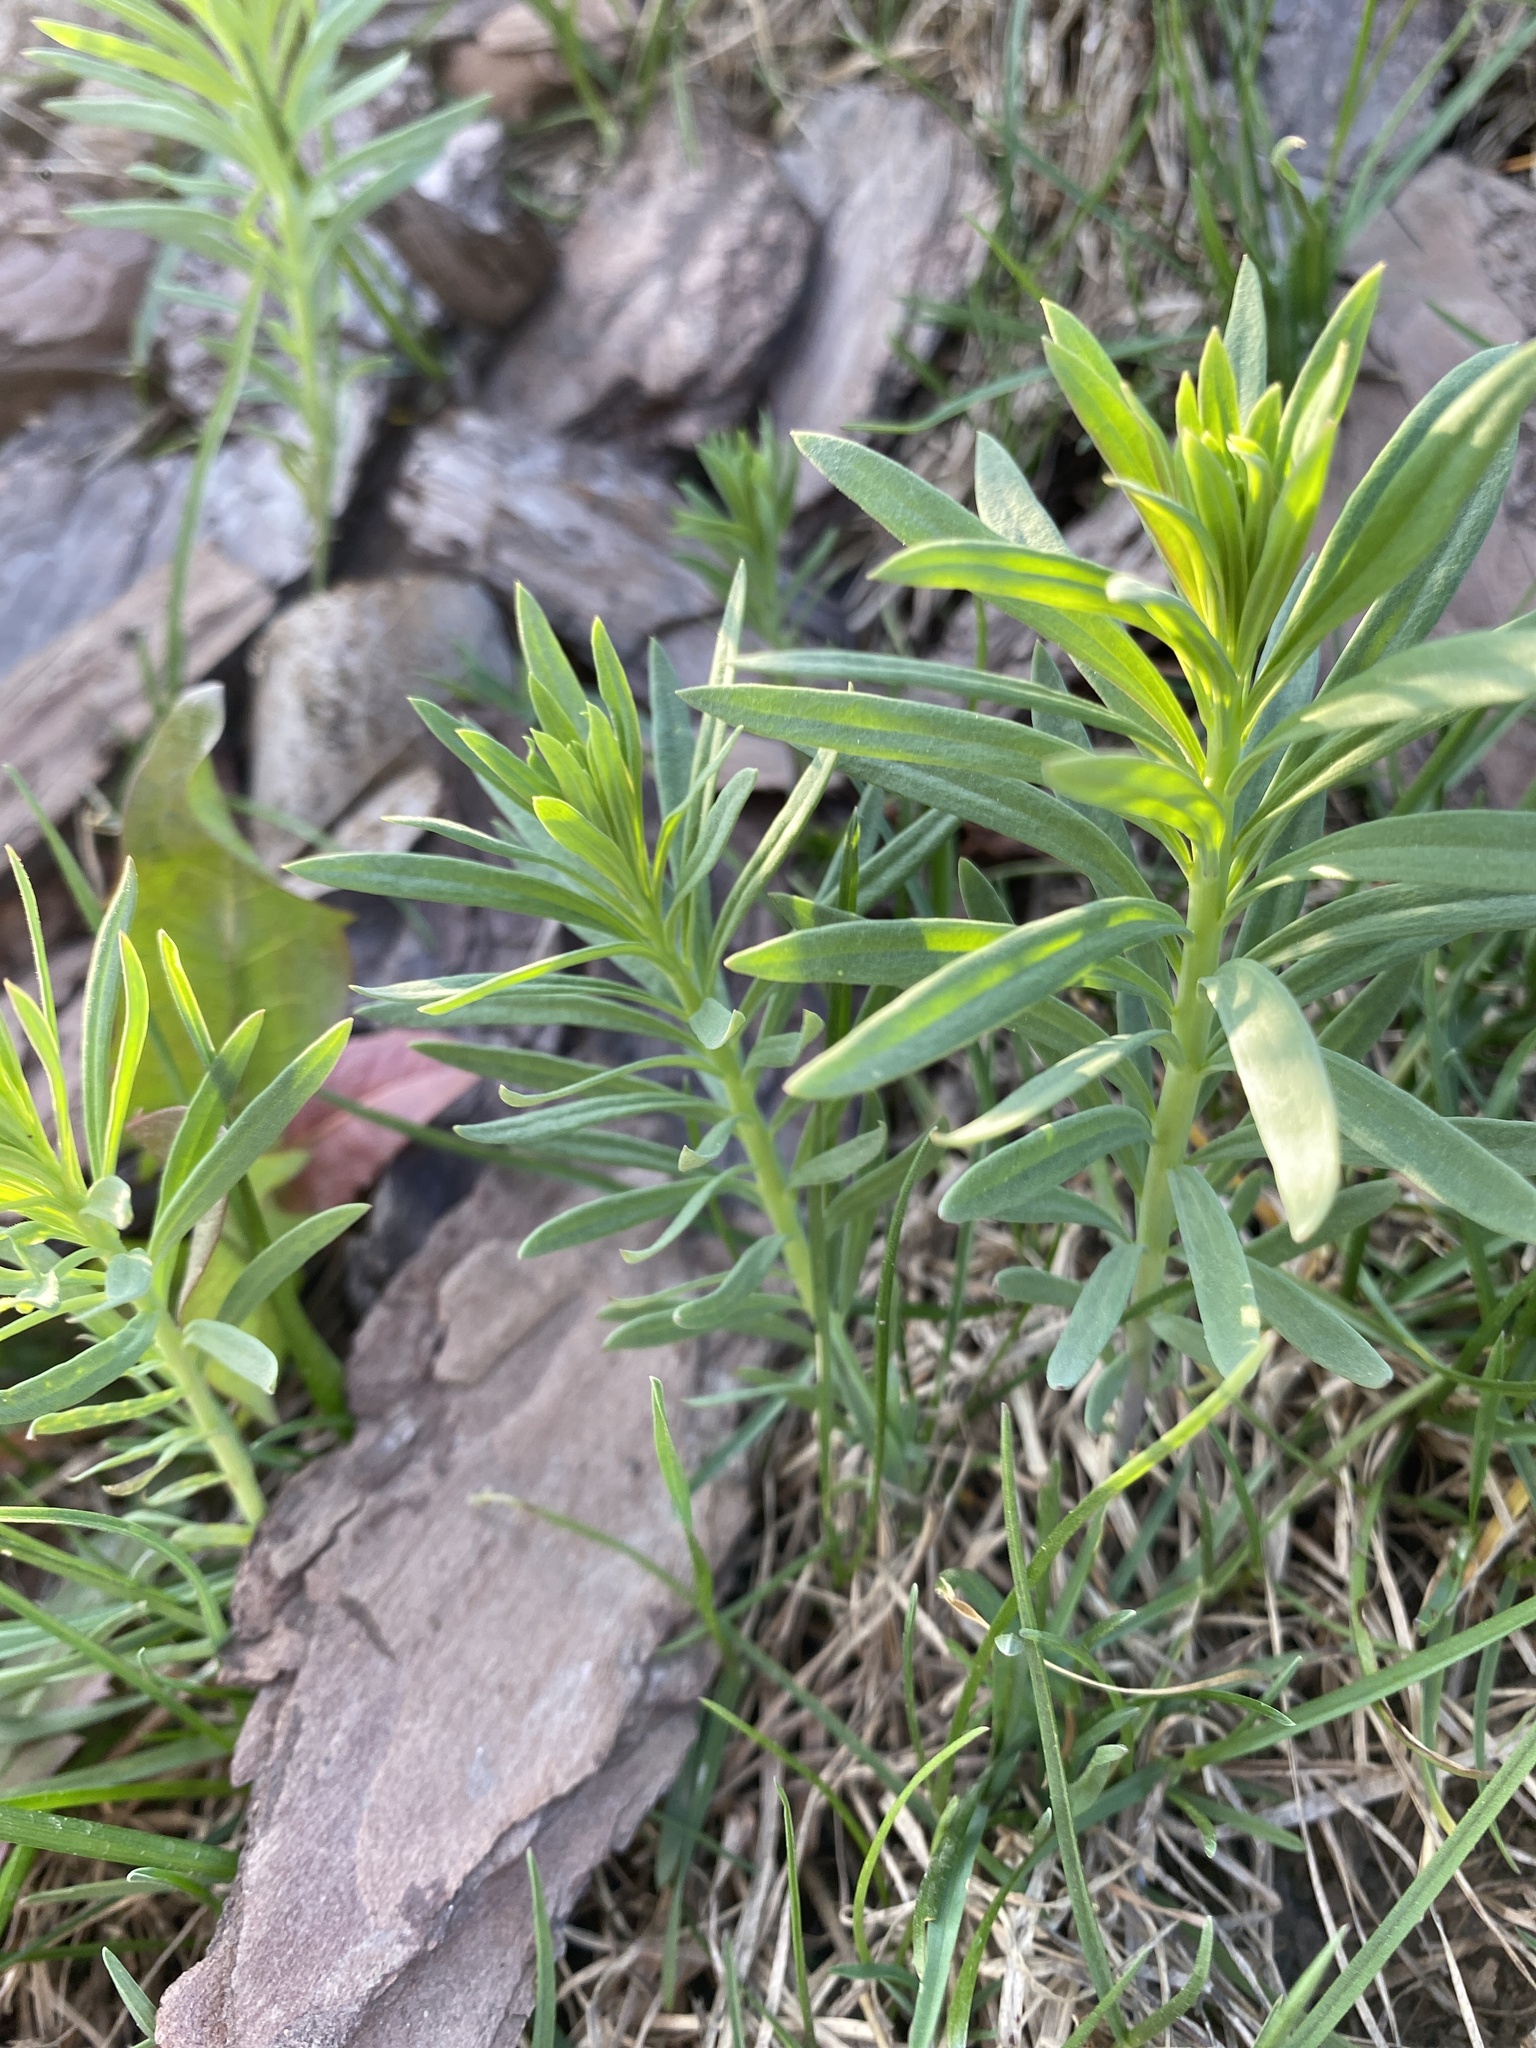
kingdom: Plantae
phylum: Tracheophyta
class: Magnoliopsida
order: Lamiales
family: Plantaginaceae
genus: Linaria
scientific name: Linaria vulgaris
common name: Butter and eggs
